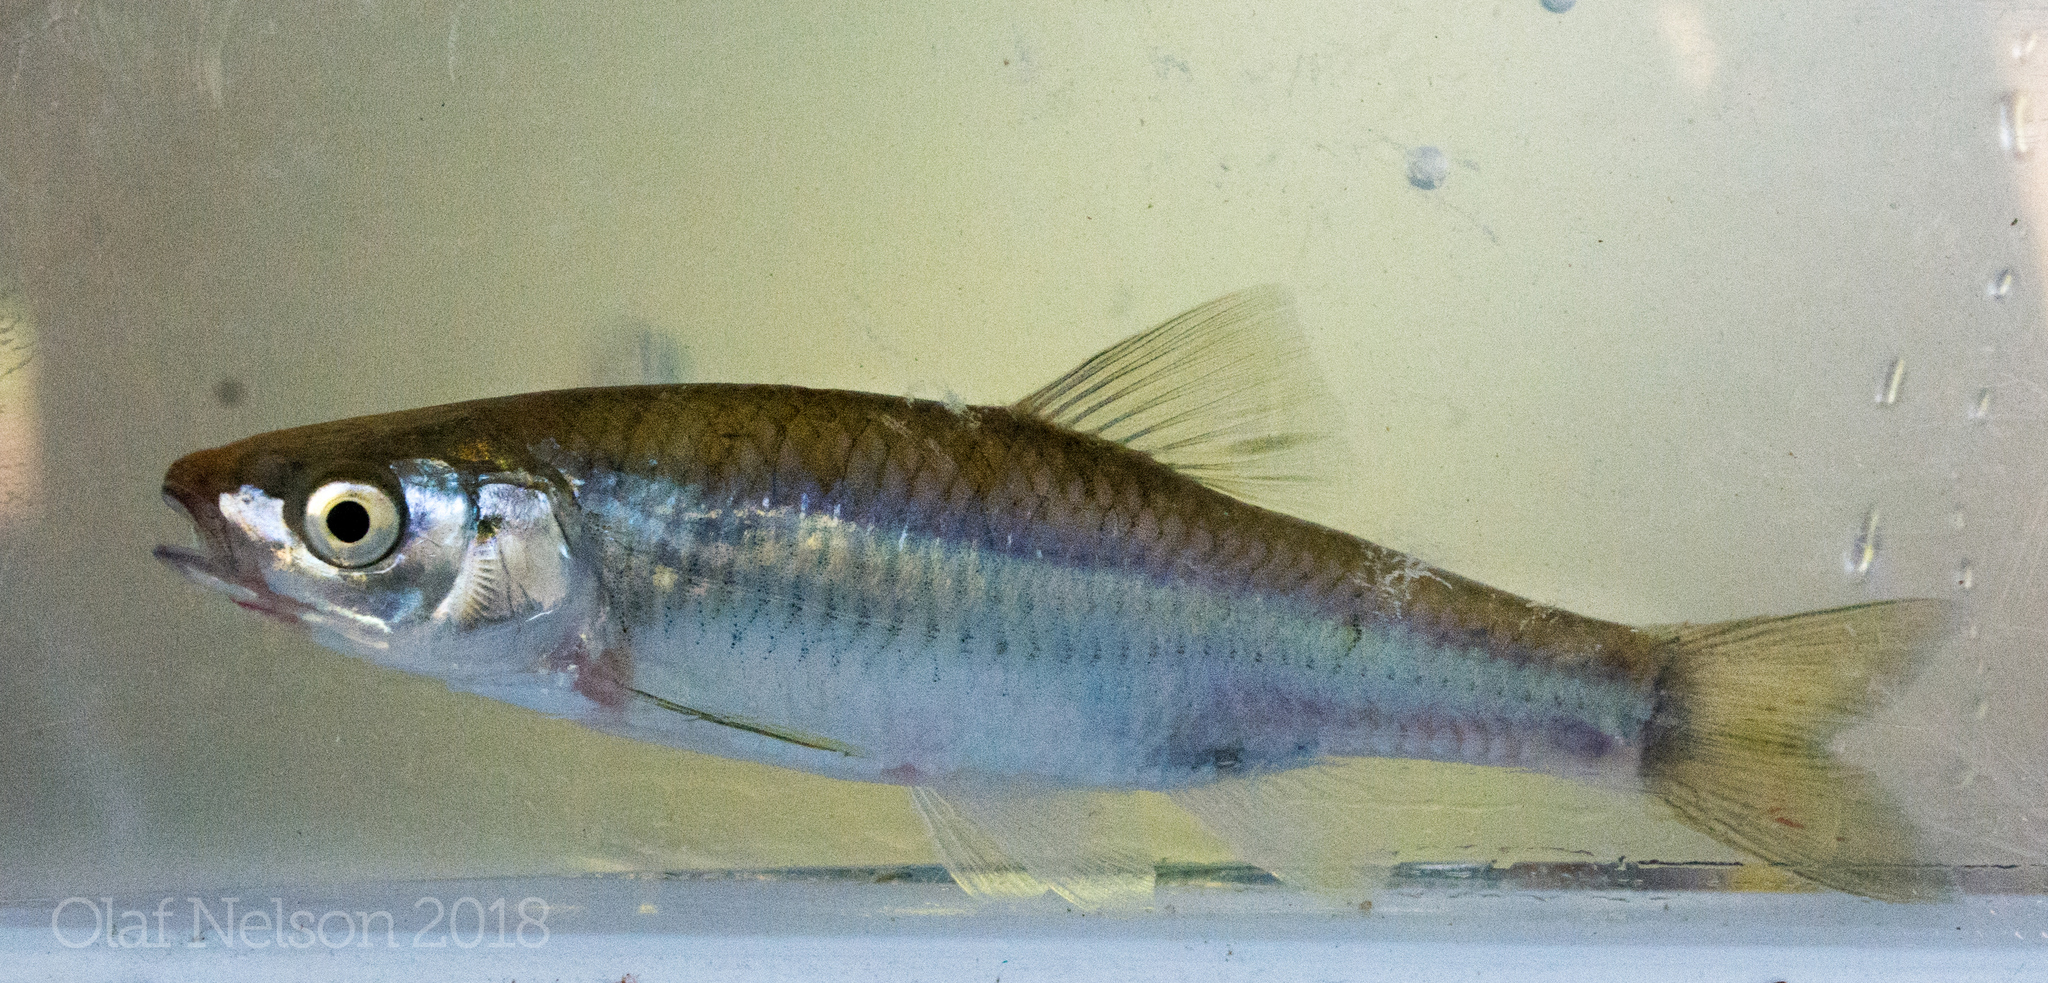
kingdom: Animalia
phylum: Chordata
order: Cypriniformes
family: Cyprinidae
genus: Cyprinella
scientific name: Cyprinella spiloptera
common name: Spotfin shiner
